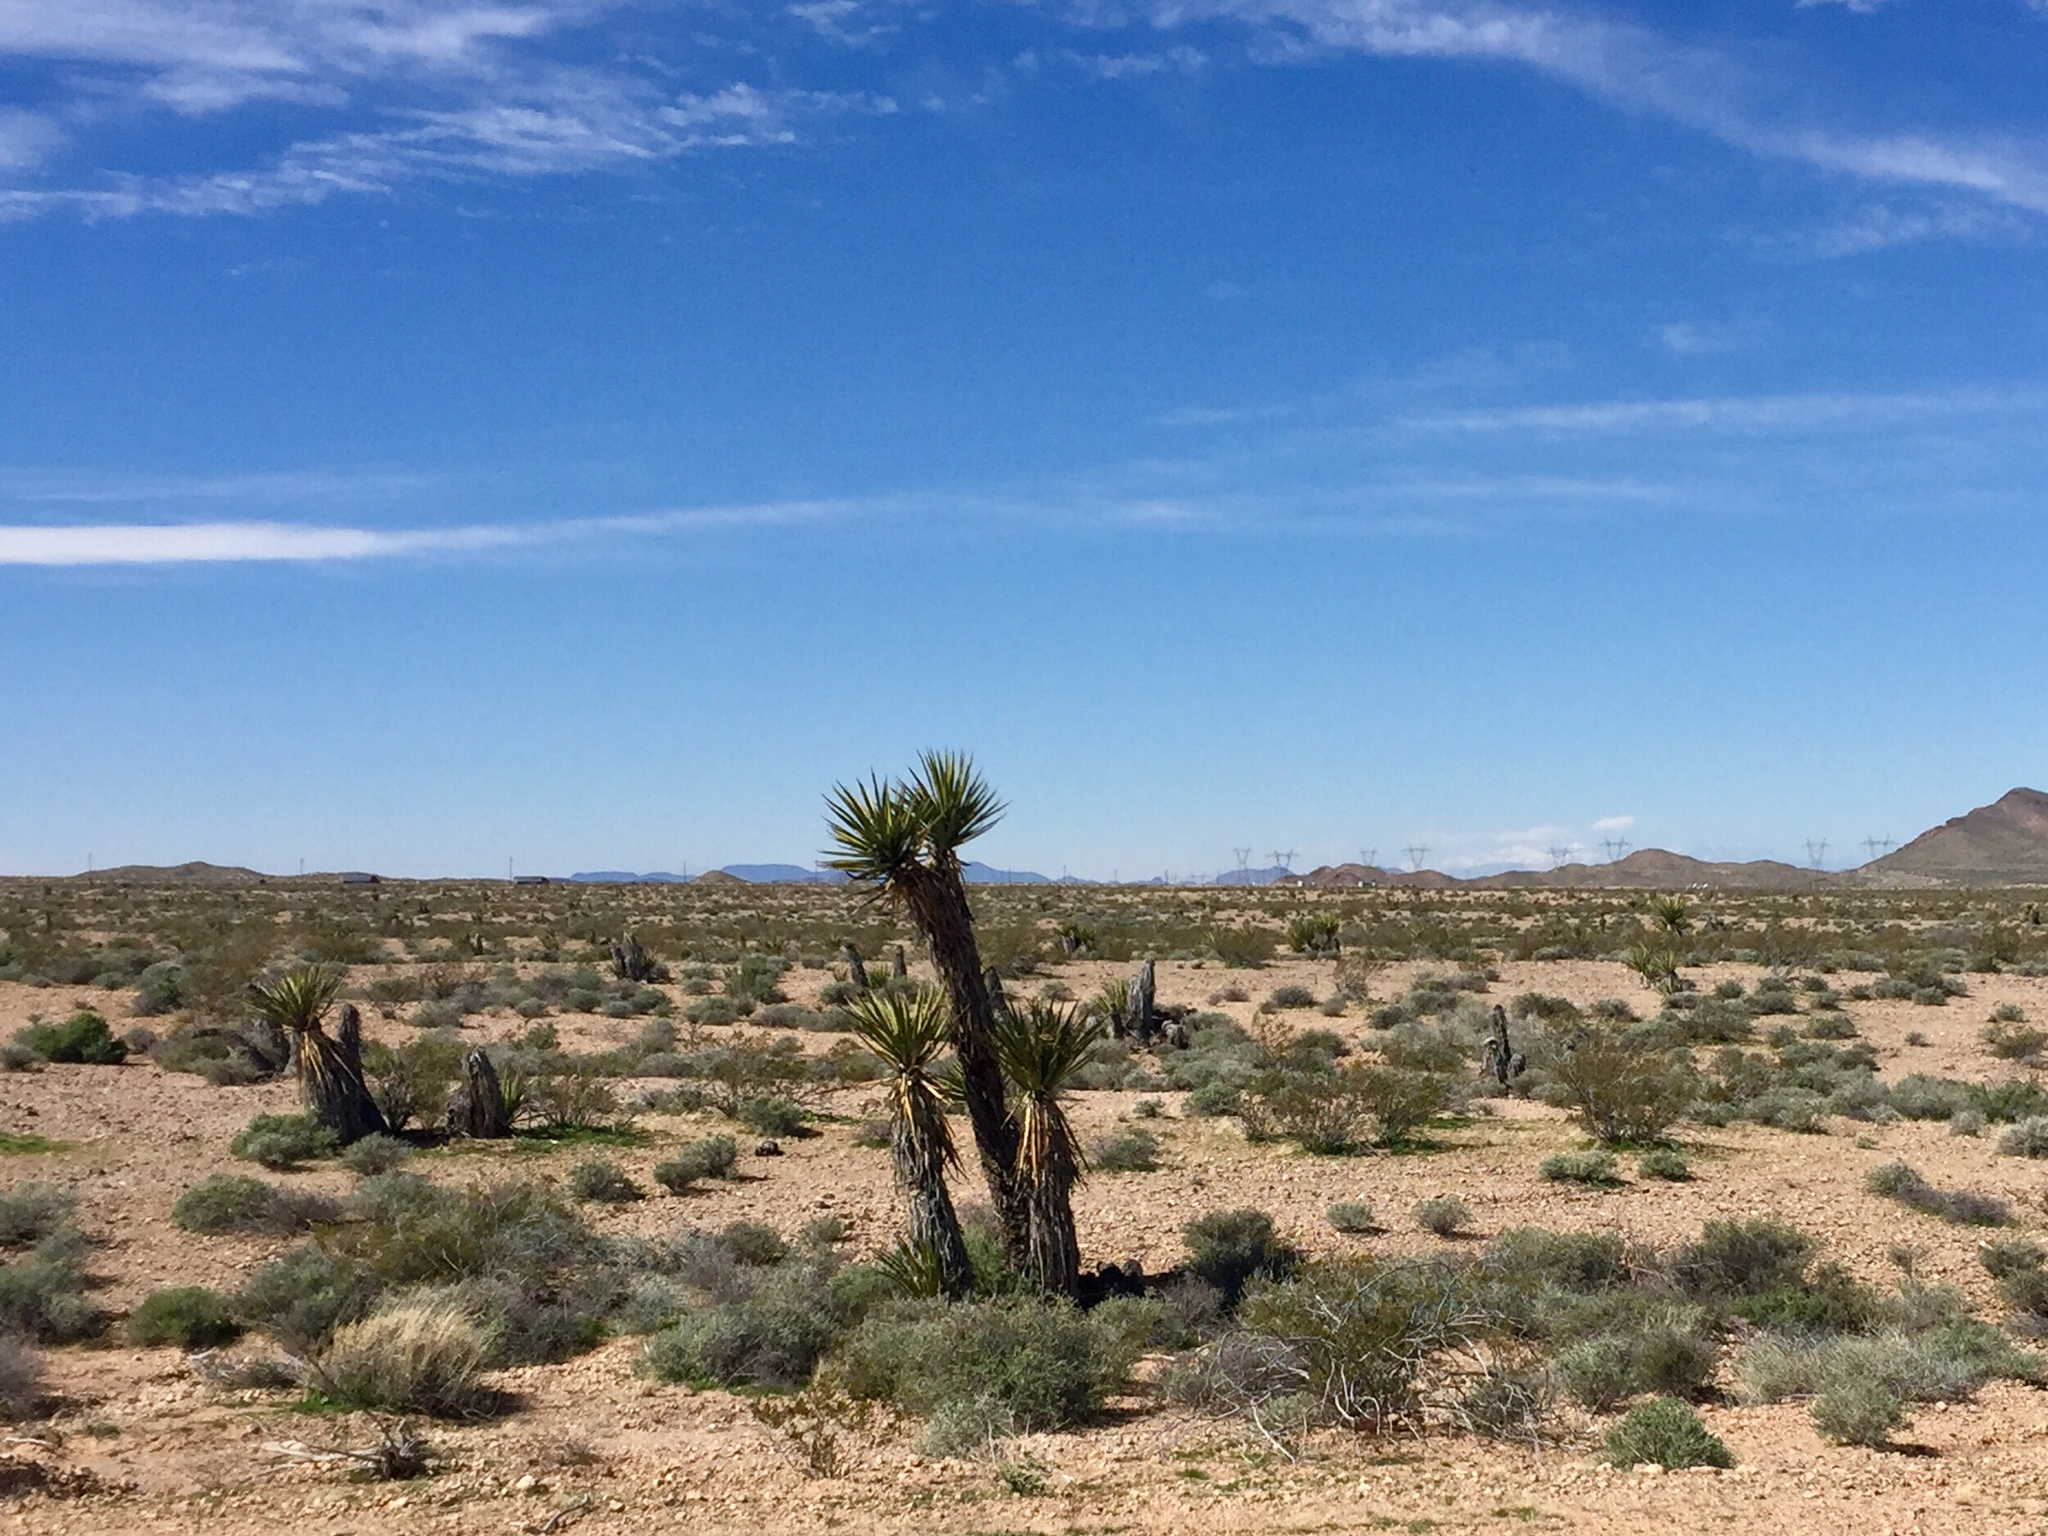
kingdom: Plantae
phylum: Tracheophyta
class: Liliopsida
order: Asparagales
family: Asparagaceae
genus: Yucca
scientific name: Yucca schidigera
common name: Mojave yucca
